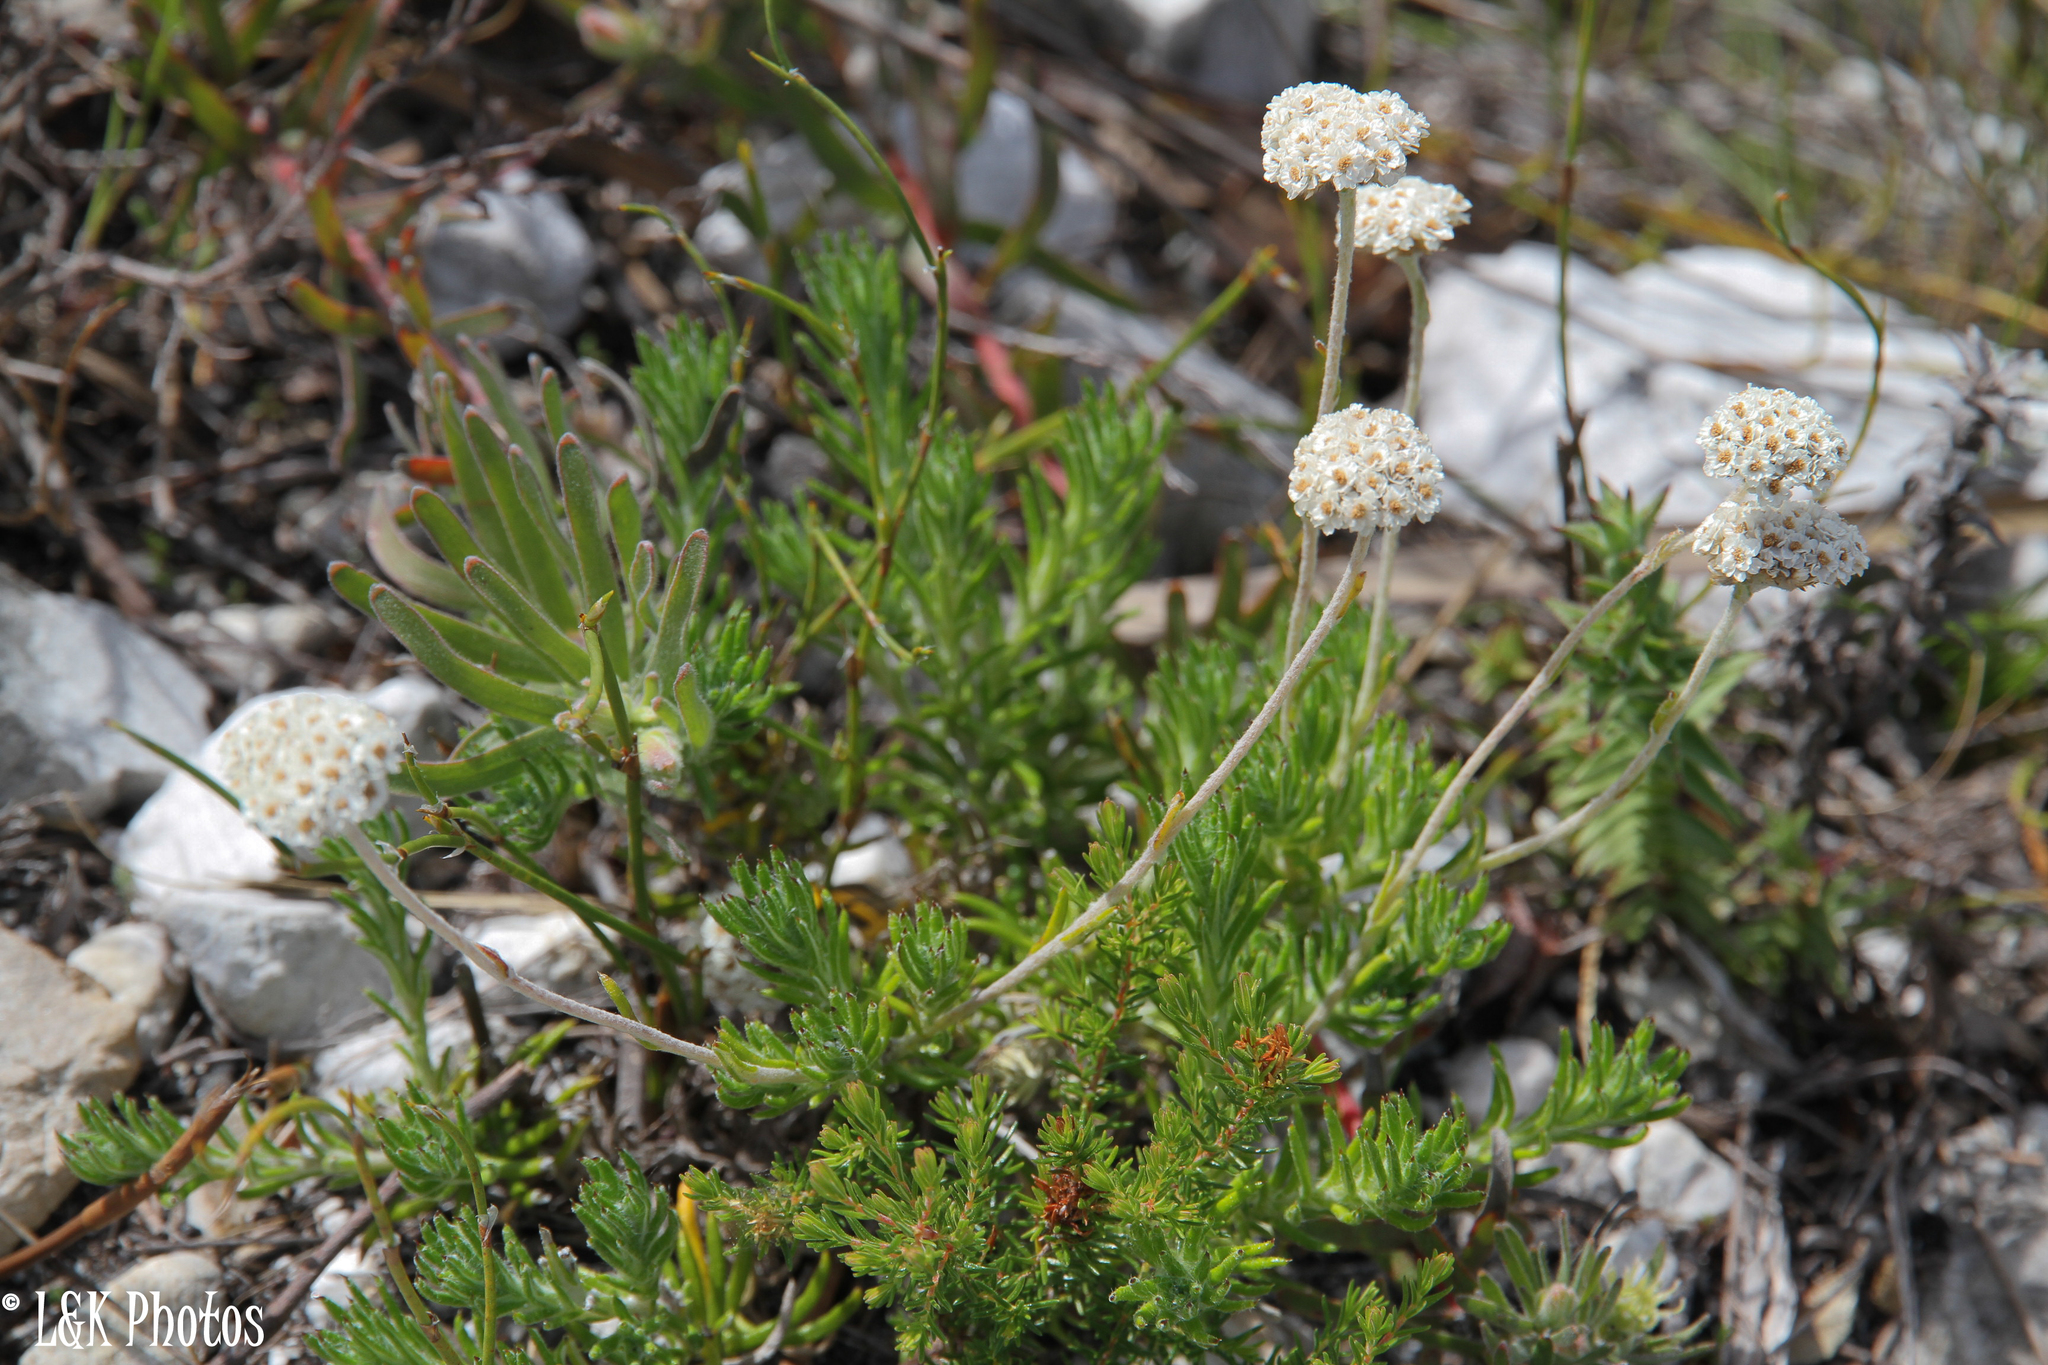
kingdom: Plantae
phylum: Tracheophyta
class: Magnoliopsida
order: Asterales
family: Asteraceae
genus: Anaxeton
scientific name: Anaxeton asperum
